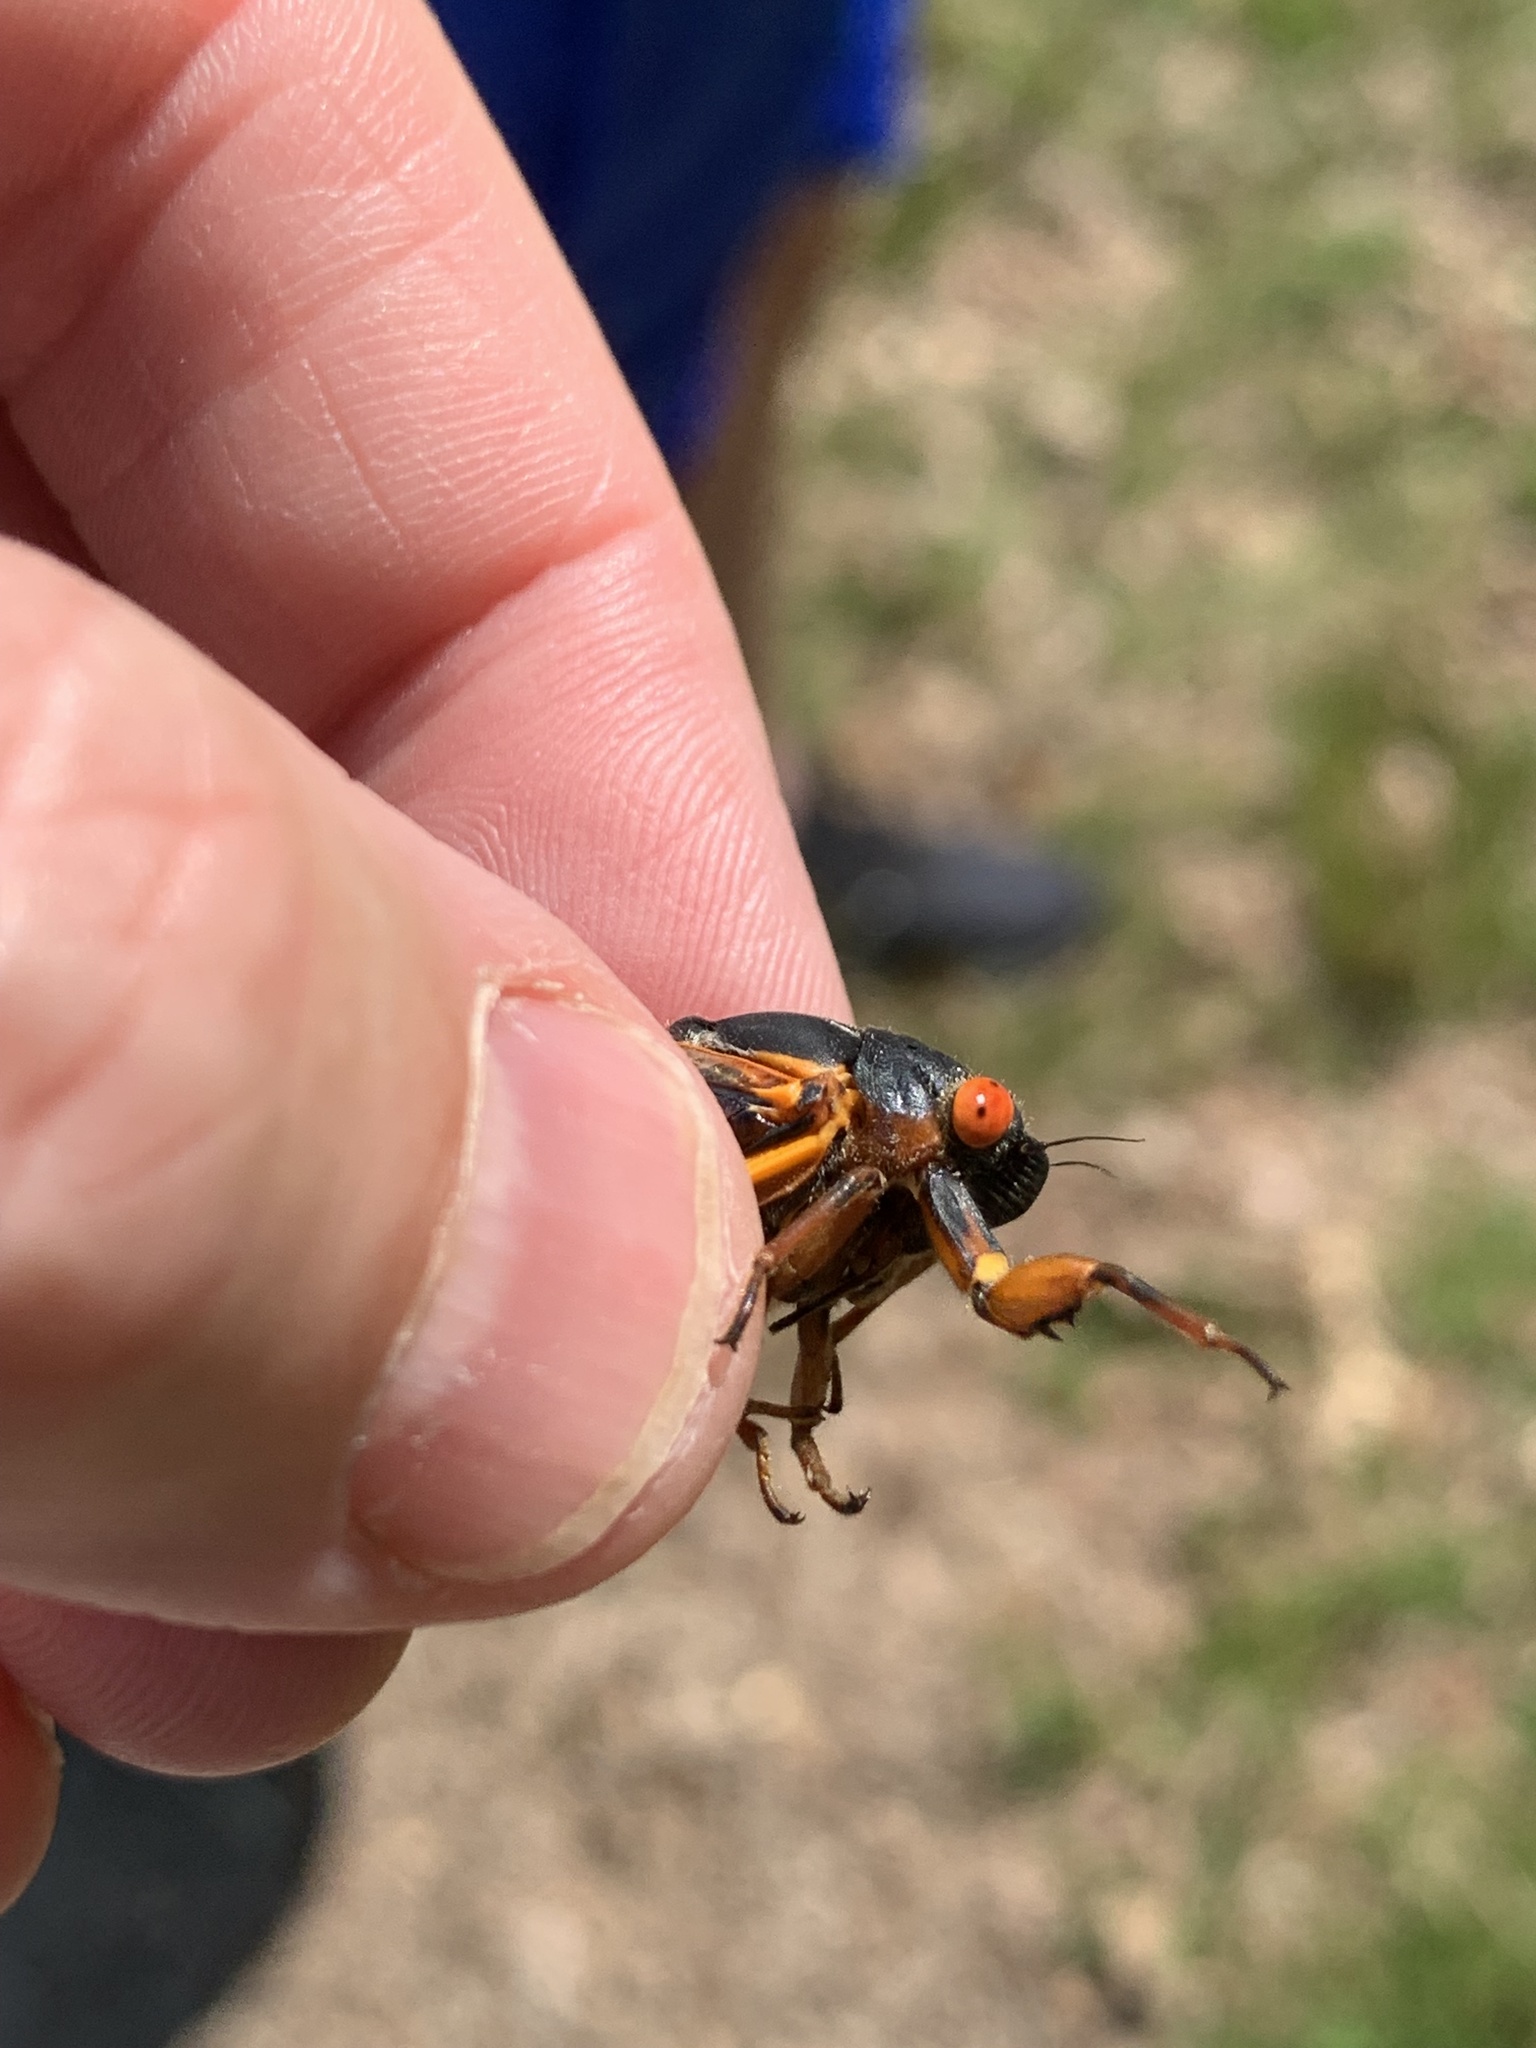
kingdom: Animalia
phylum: Arthropoda
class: Insecta
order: Hemiptera
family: Cicadidae
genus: Magicicada
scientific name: Magicicada septendecim
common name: Periodical cicada
